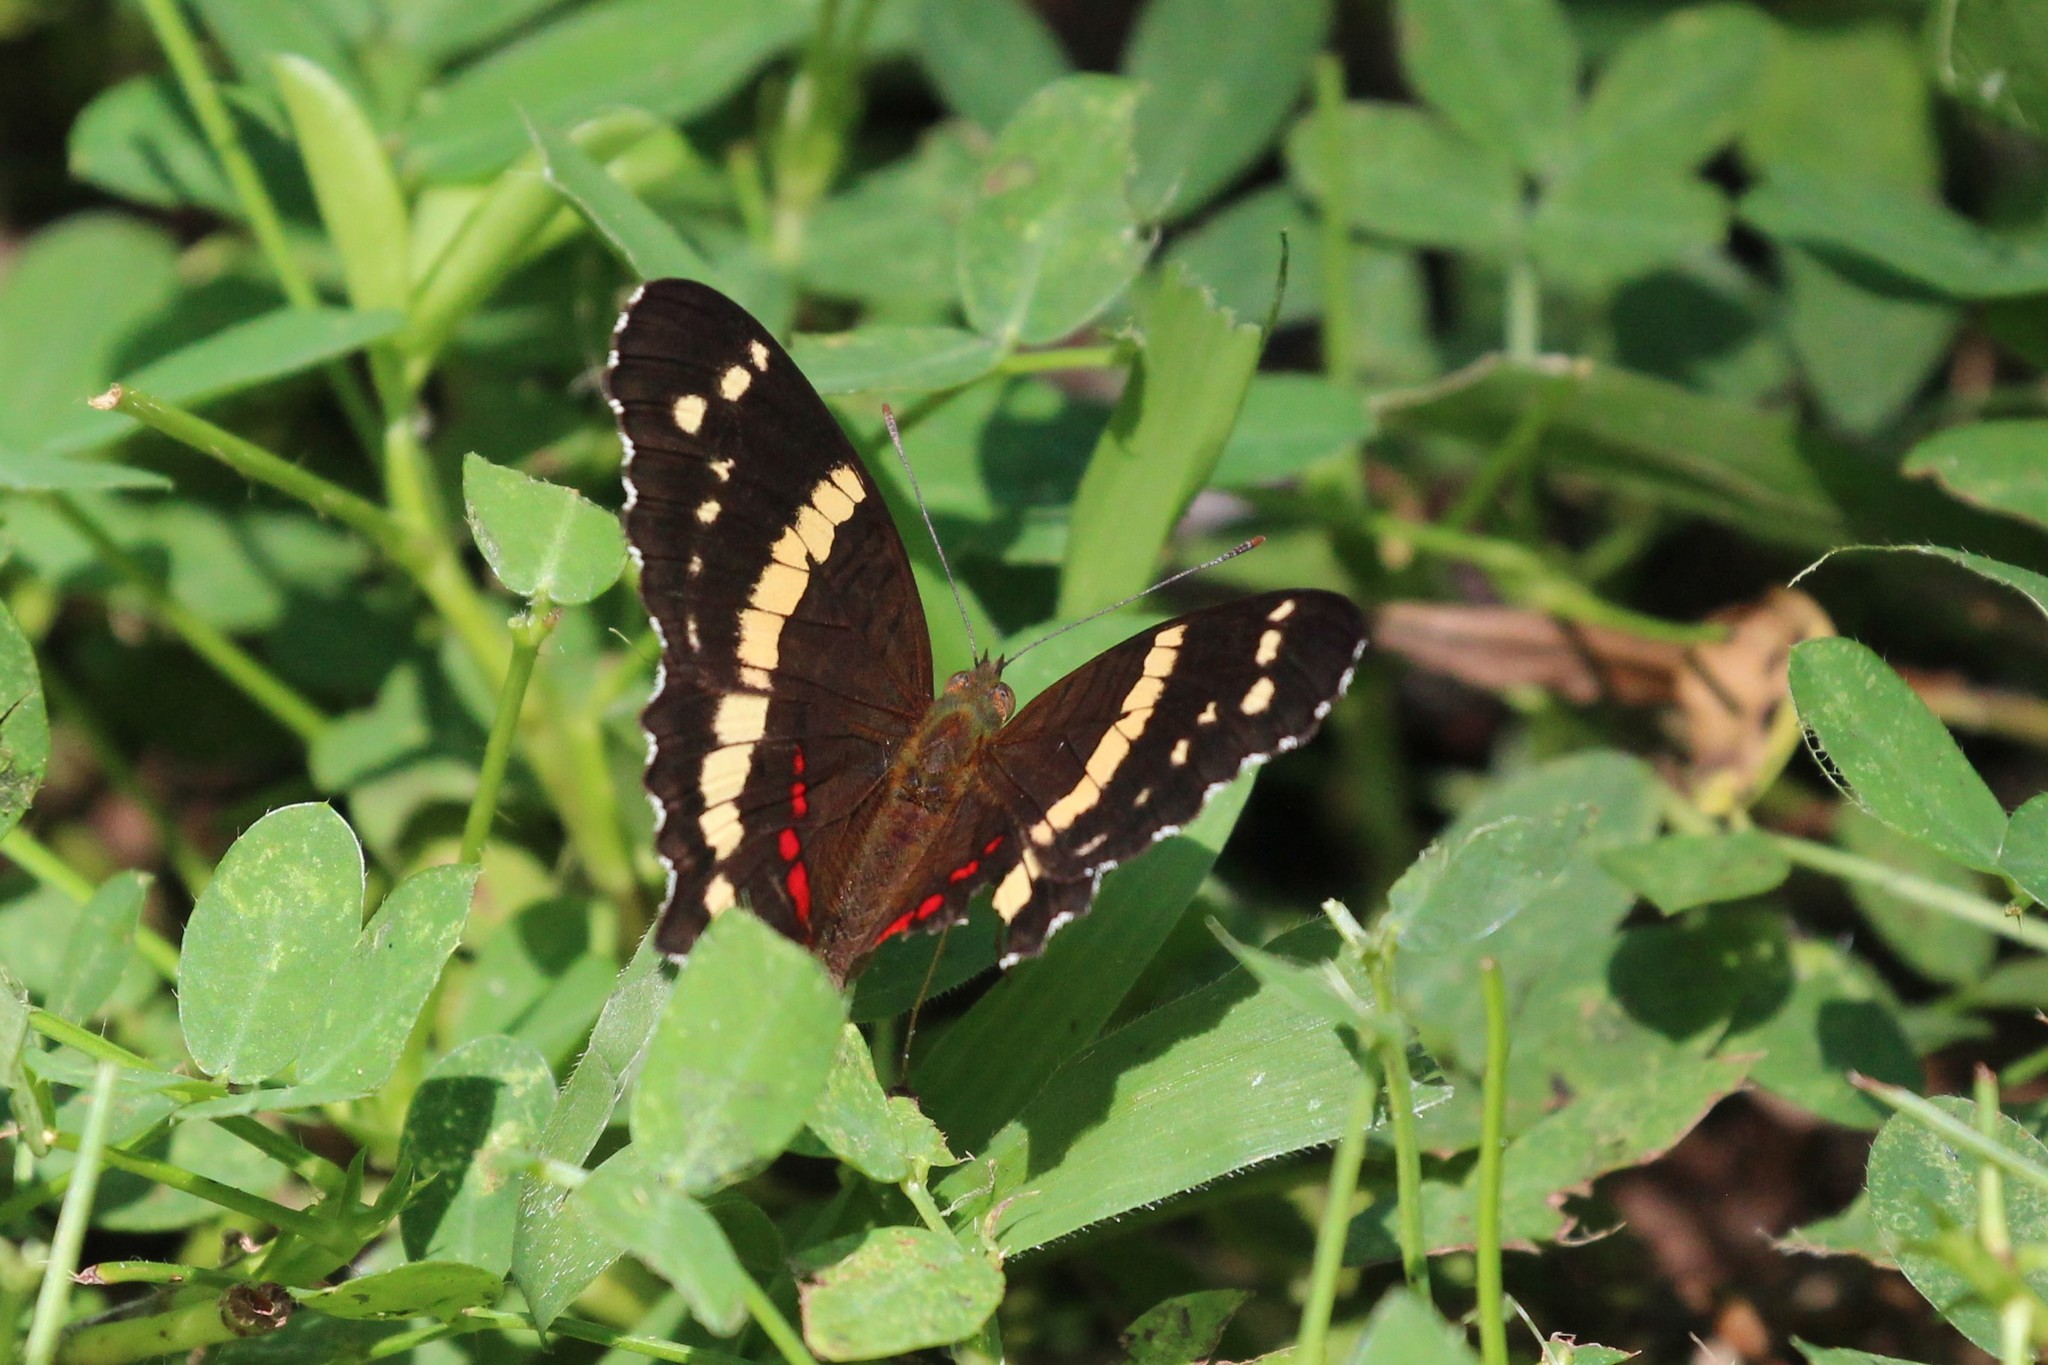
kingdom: Animalia
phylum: Arthropoda
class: Insecta
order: Lepidoptera
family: Nymphalidae
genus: Anartia
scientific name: Anartia fatima
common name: Banded peacock
